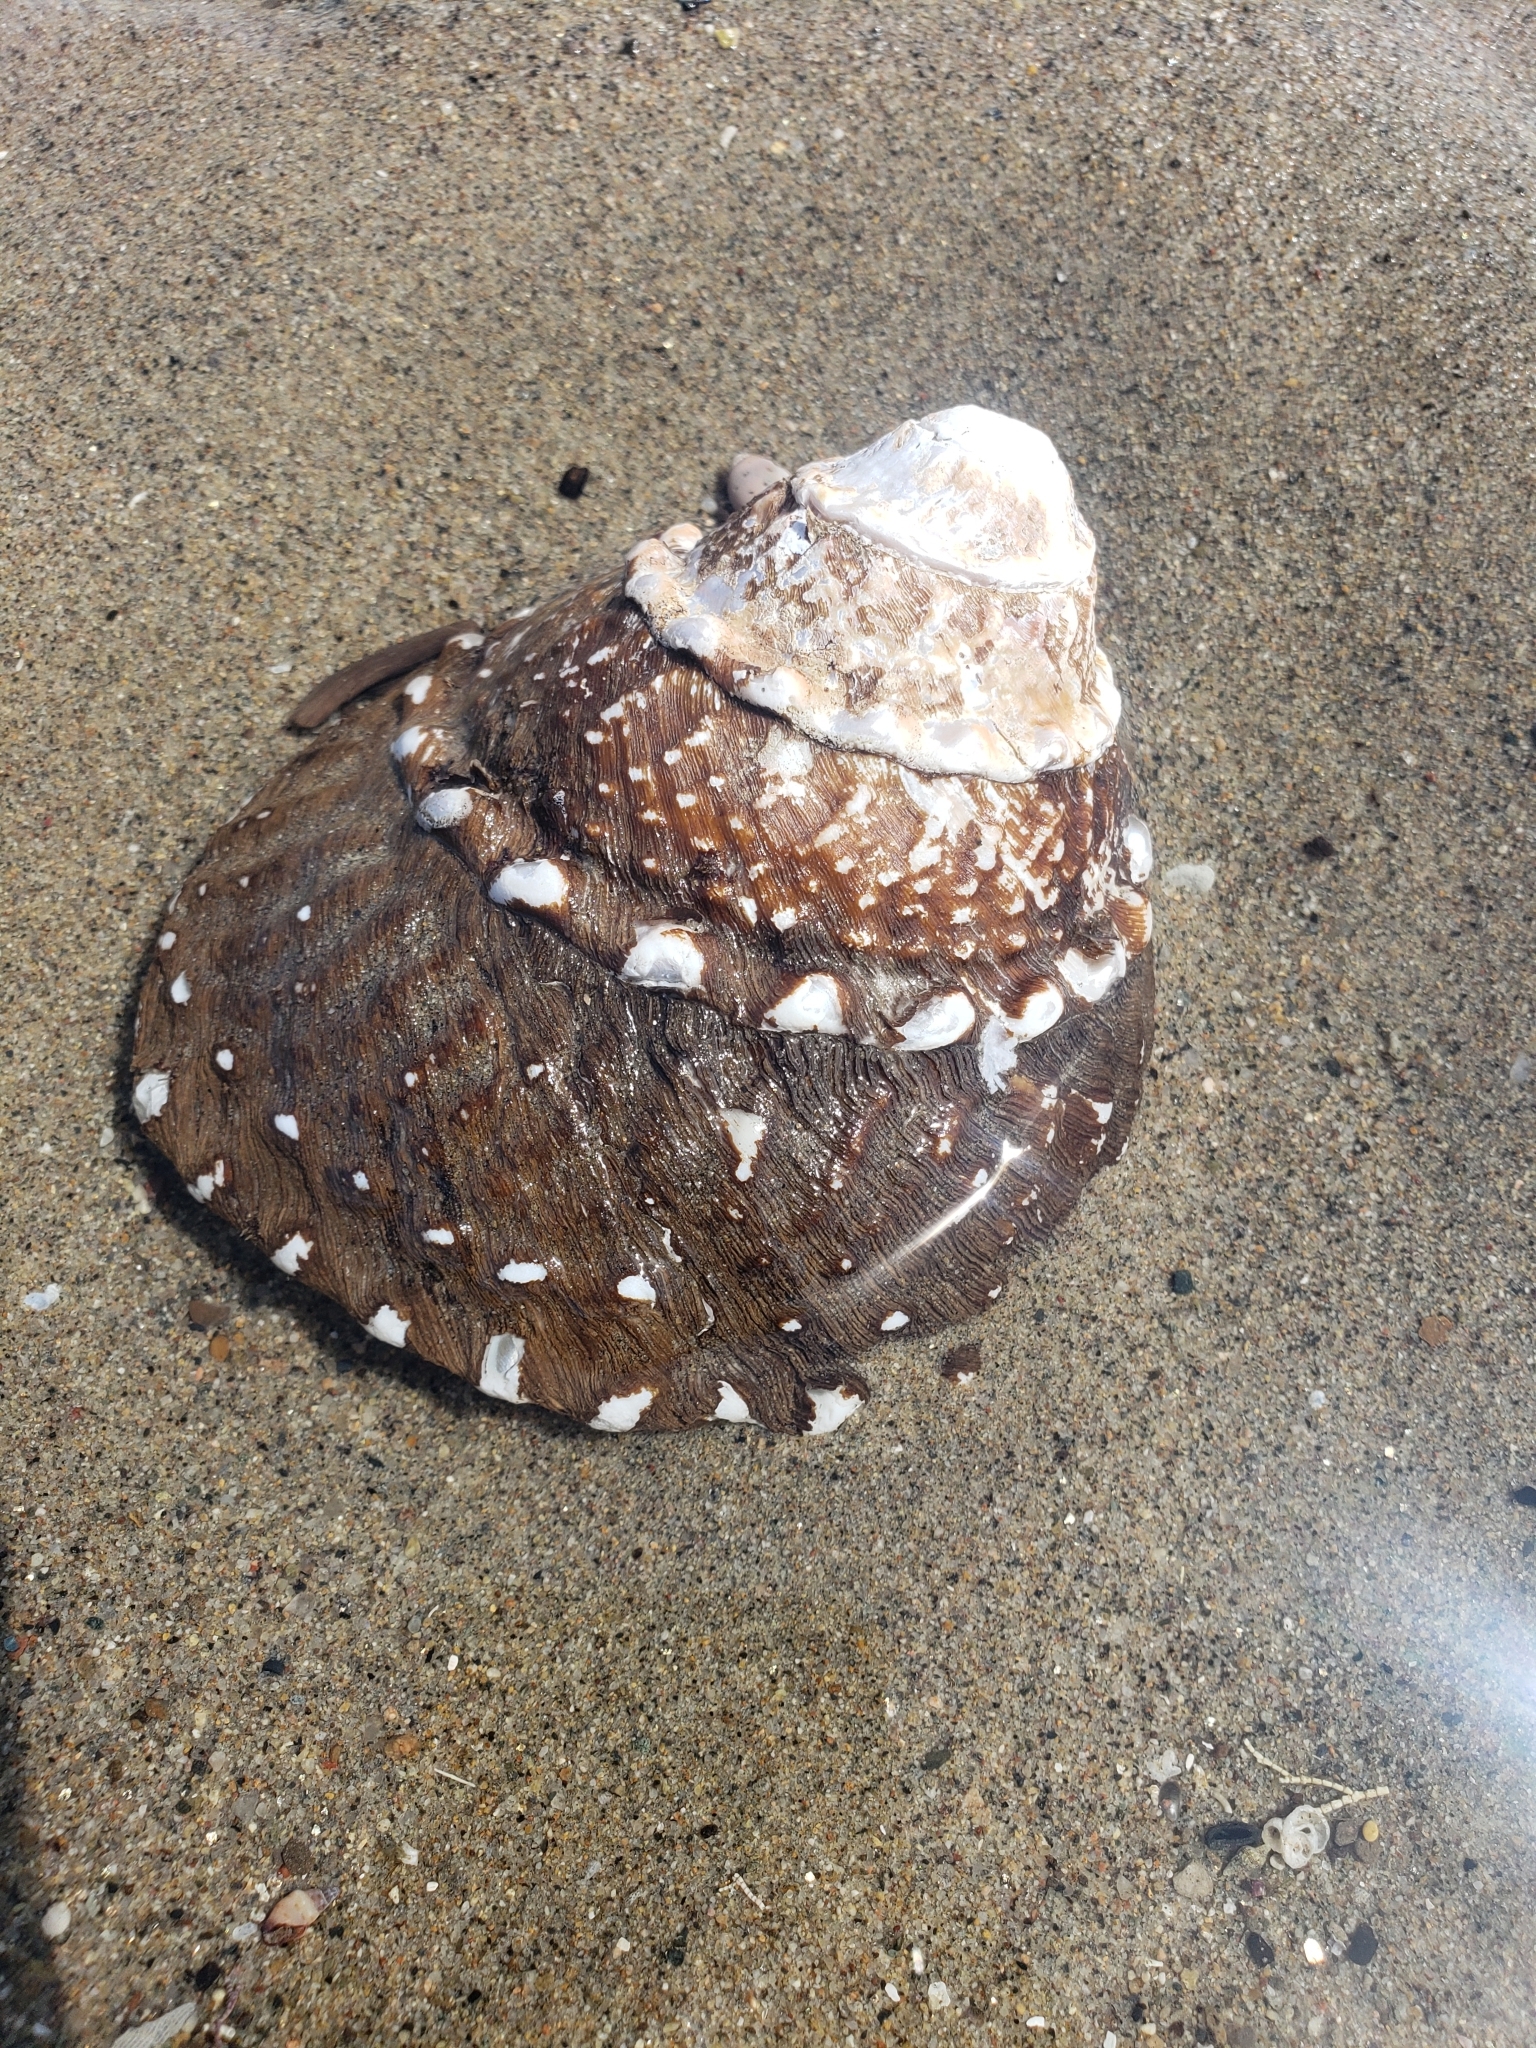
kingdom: Animalia
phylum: Mollusca
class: Gastropoda
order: Trochida
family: Turbinidae
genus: Megastraea
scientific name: Megastraea undosa
